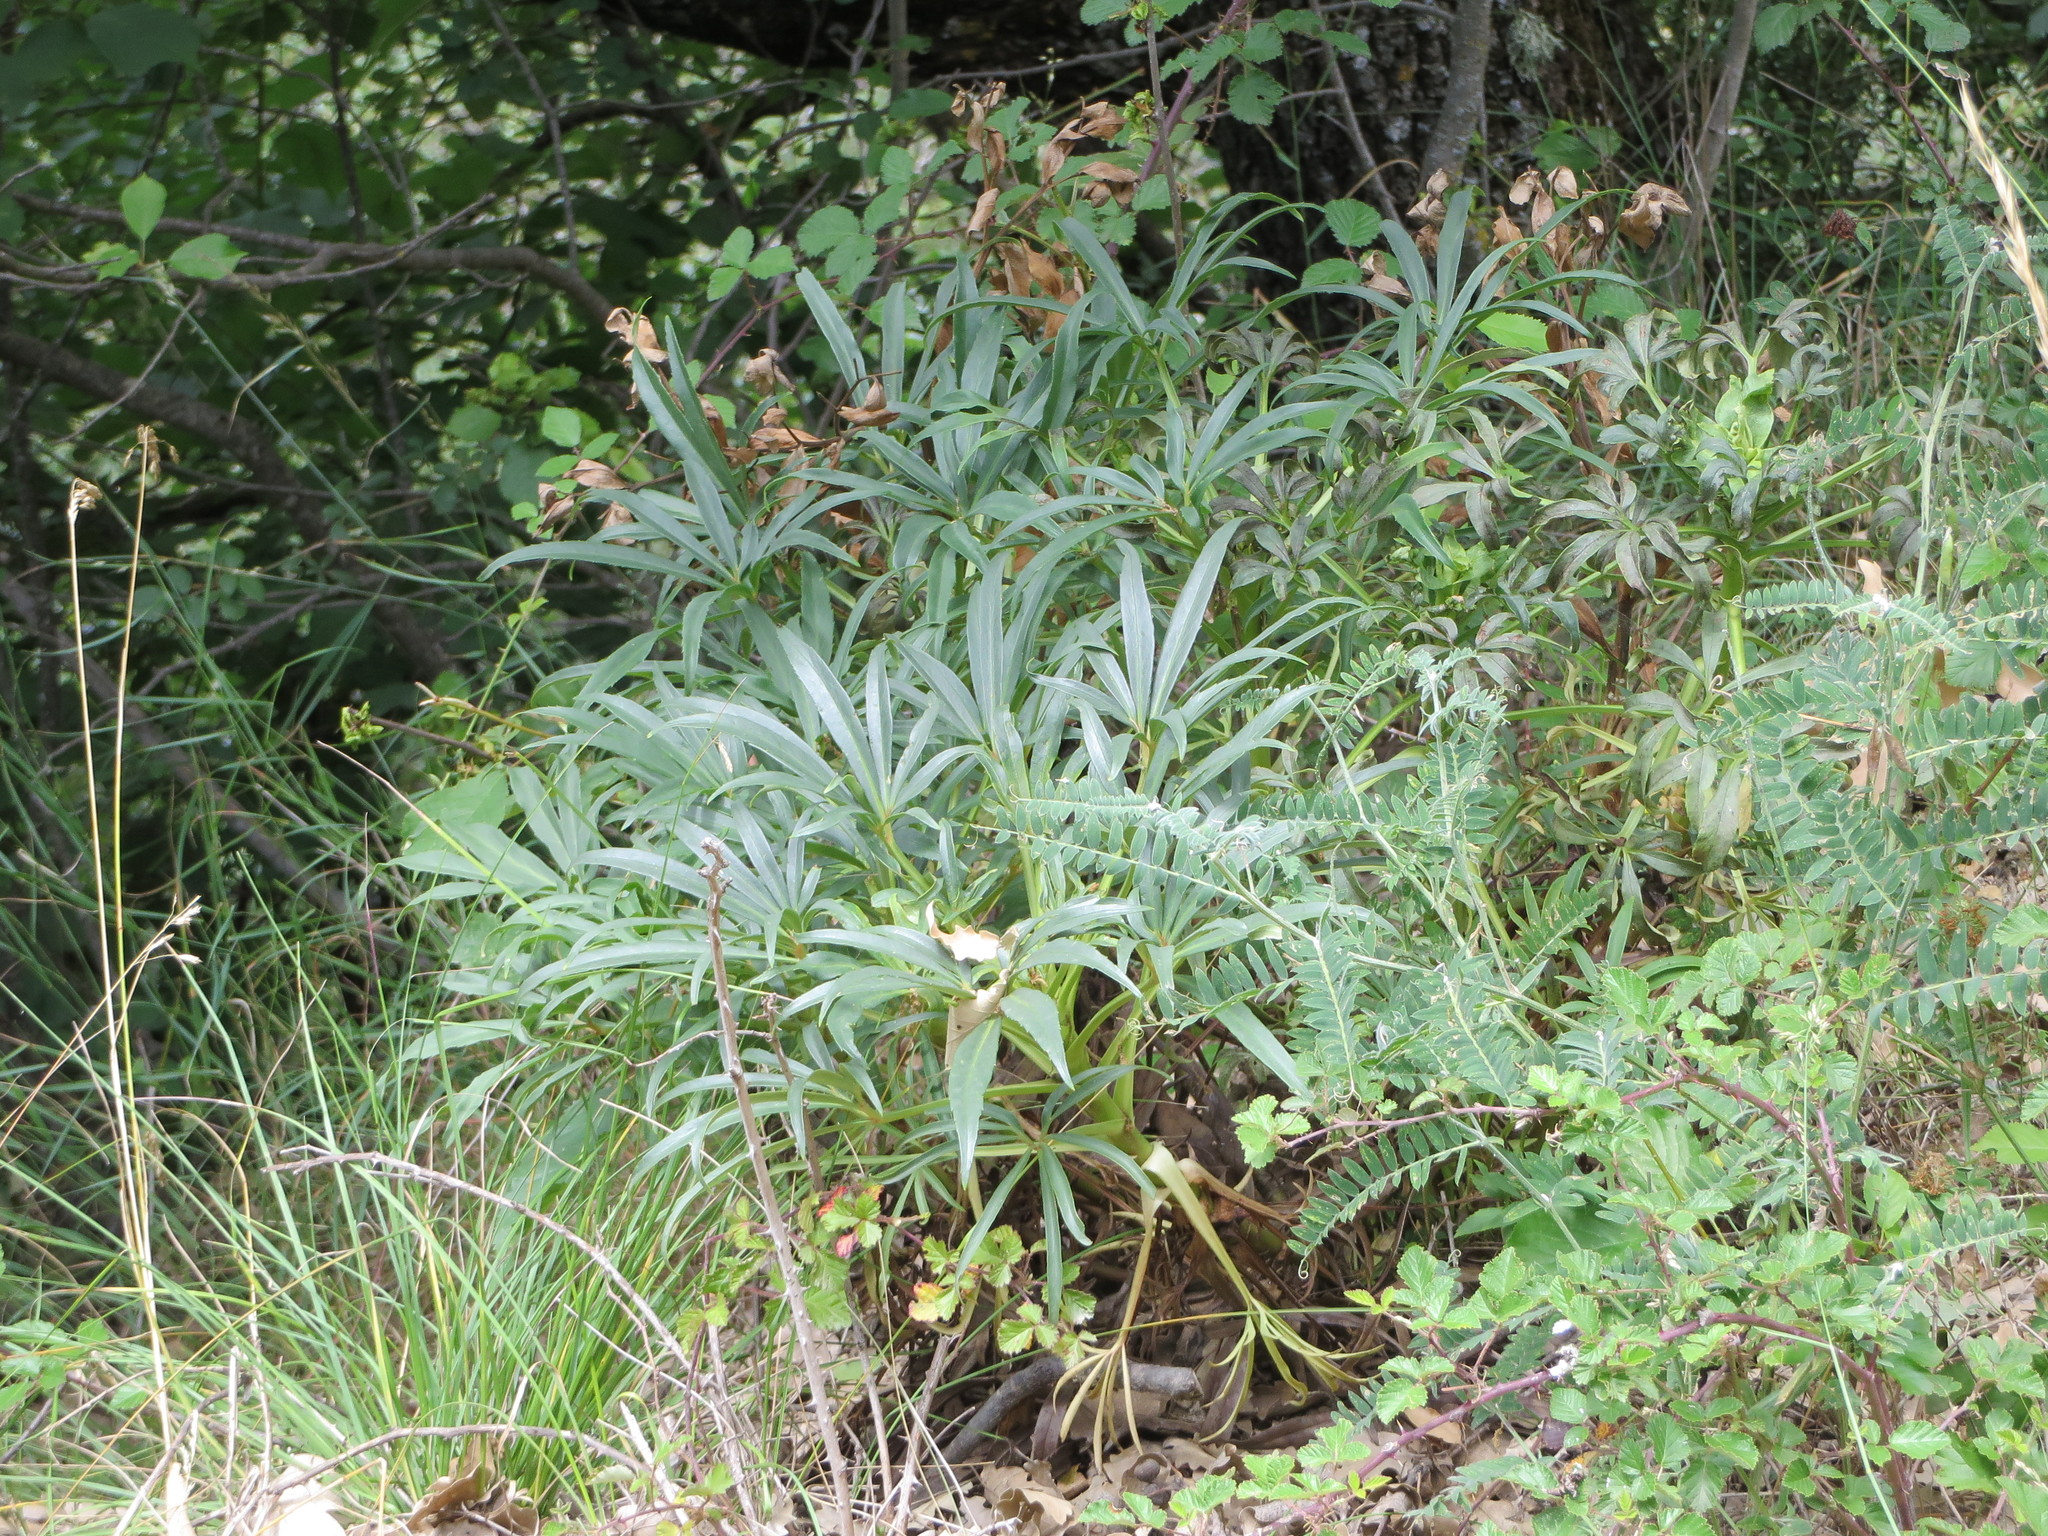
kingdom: Plantae
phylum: Tracheophyta
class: Magnoliopsida
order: Ranunculales
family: Ranunculaceae
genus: Helleborus
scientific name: Helleborus foetidus
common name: Stinking hellebore
